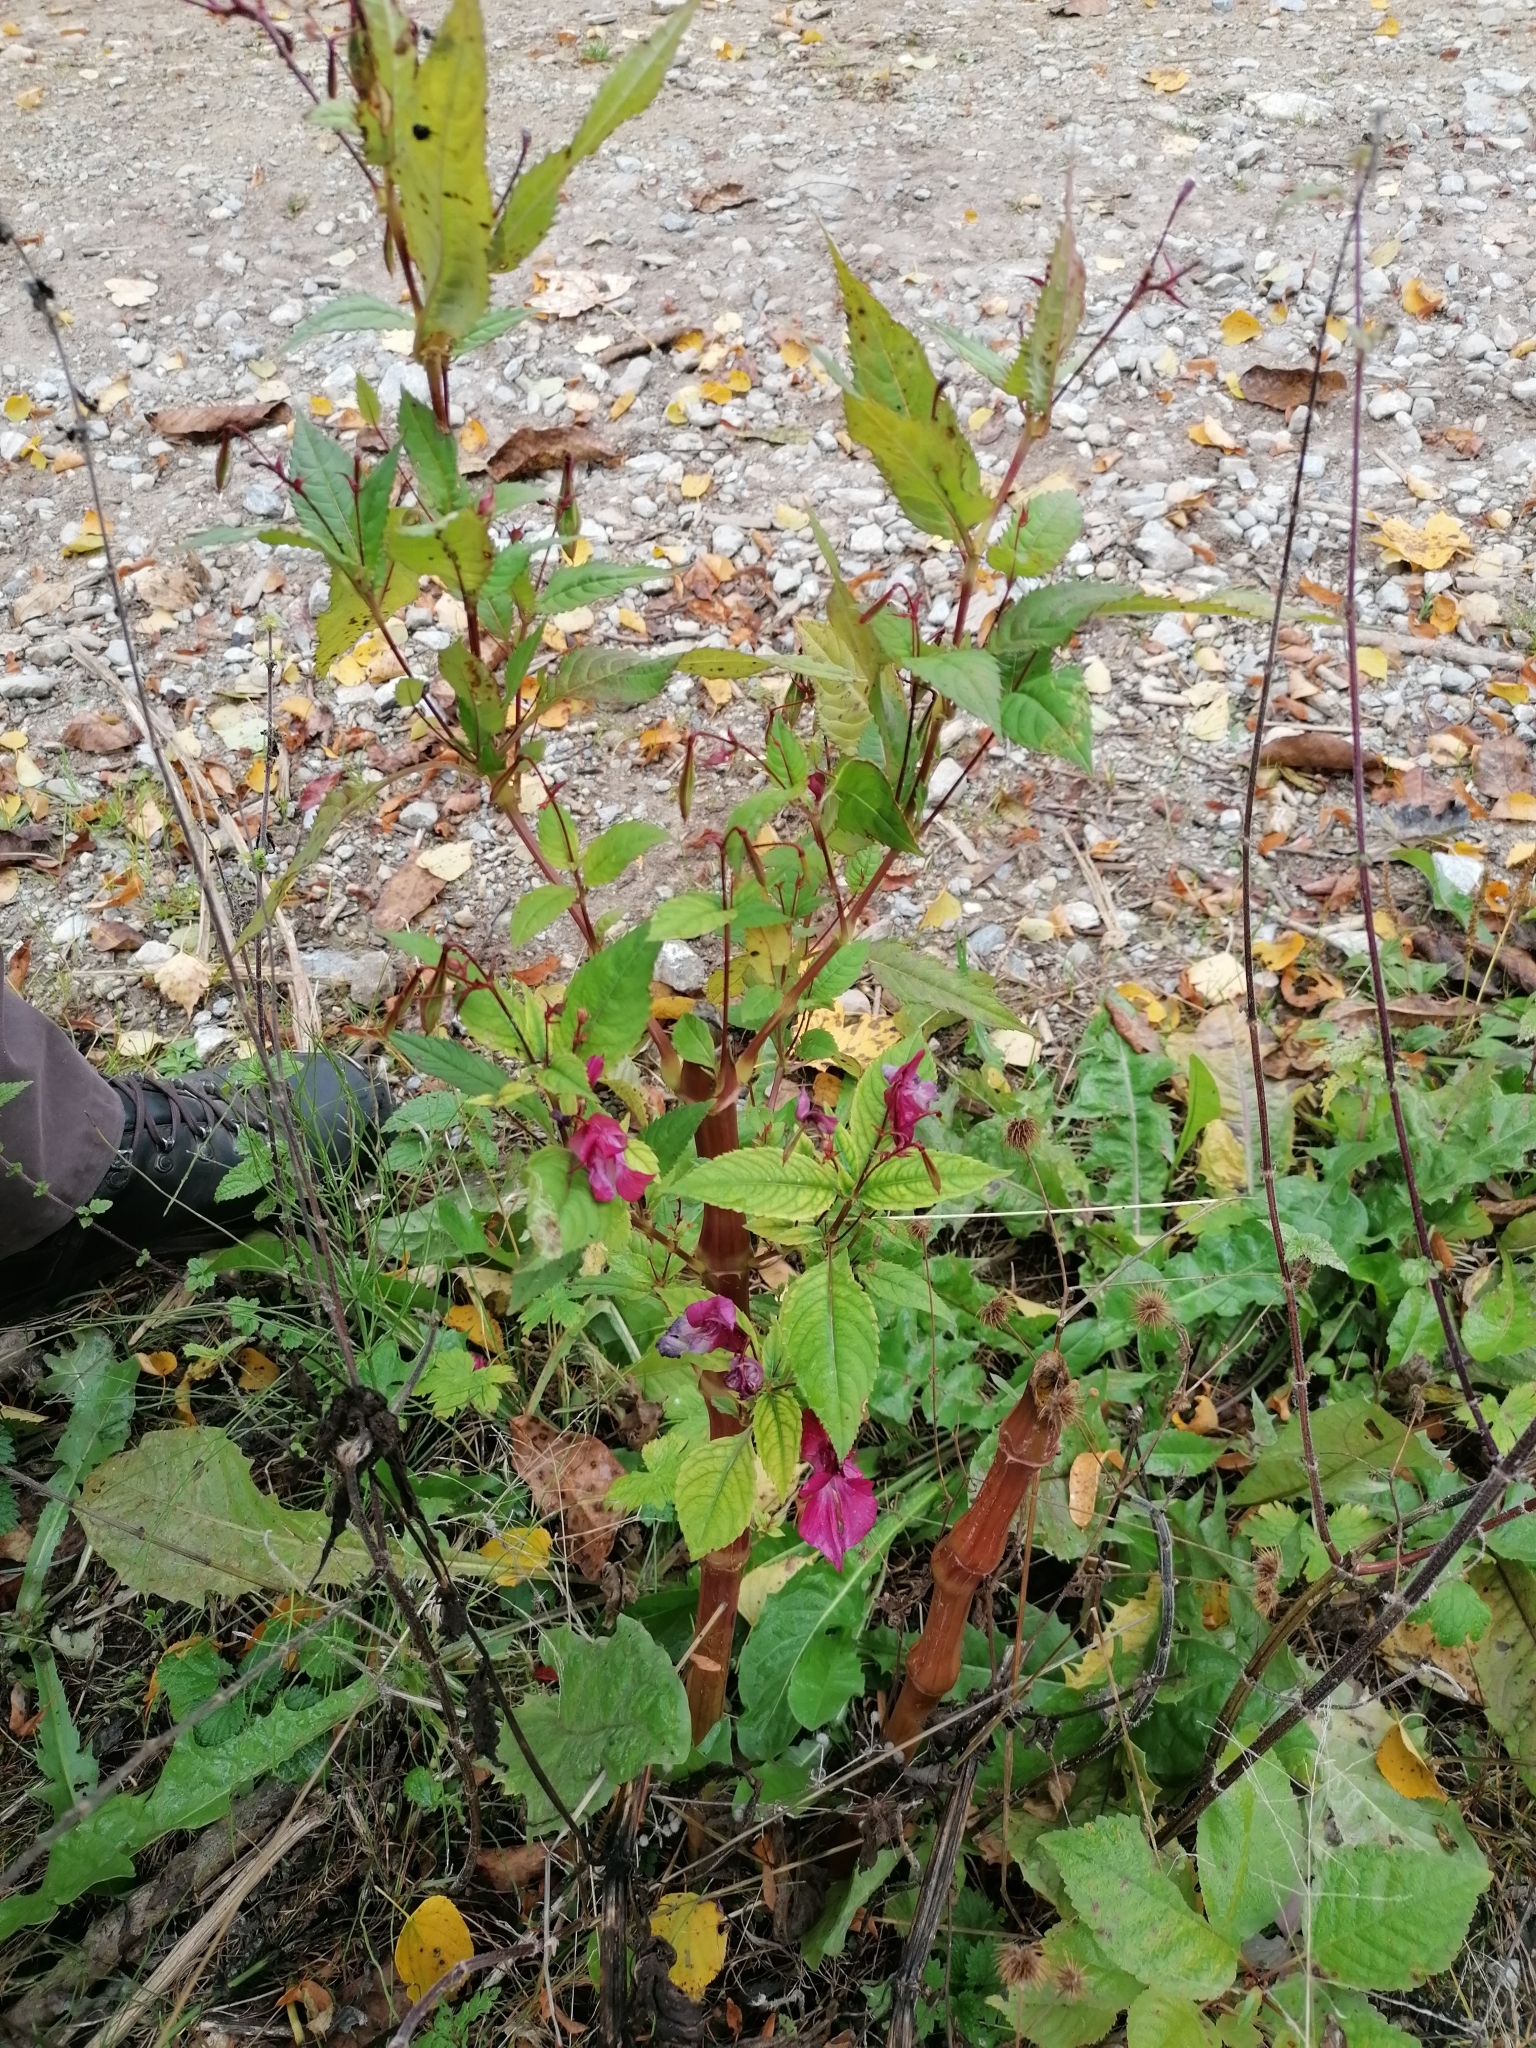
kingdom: Plantae
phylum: Tracheophyta
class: Magnoliopsida
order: Ericales
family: Balsaminaceae
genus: Impatiens
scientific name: Impatiens glandulifera
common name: Himalayan balsam
